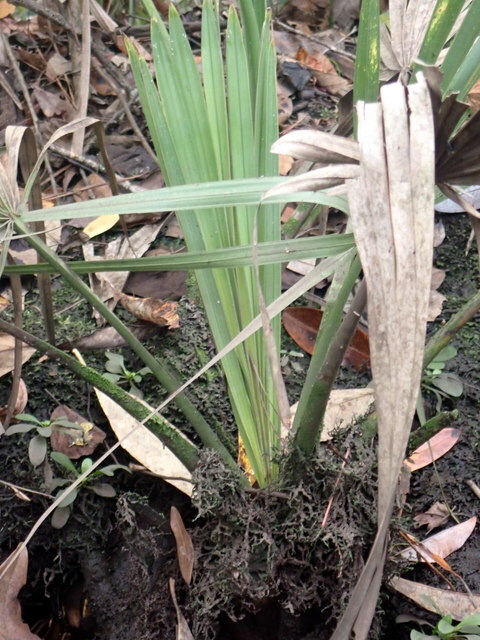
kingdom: Plantae
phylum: Tracheophyta
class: Liliopsida
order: Arecales
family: Arecaceae
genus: Sabal
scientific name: Sabal minor
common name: Dwarf palmetto
